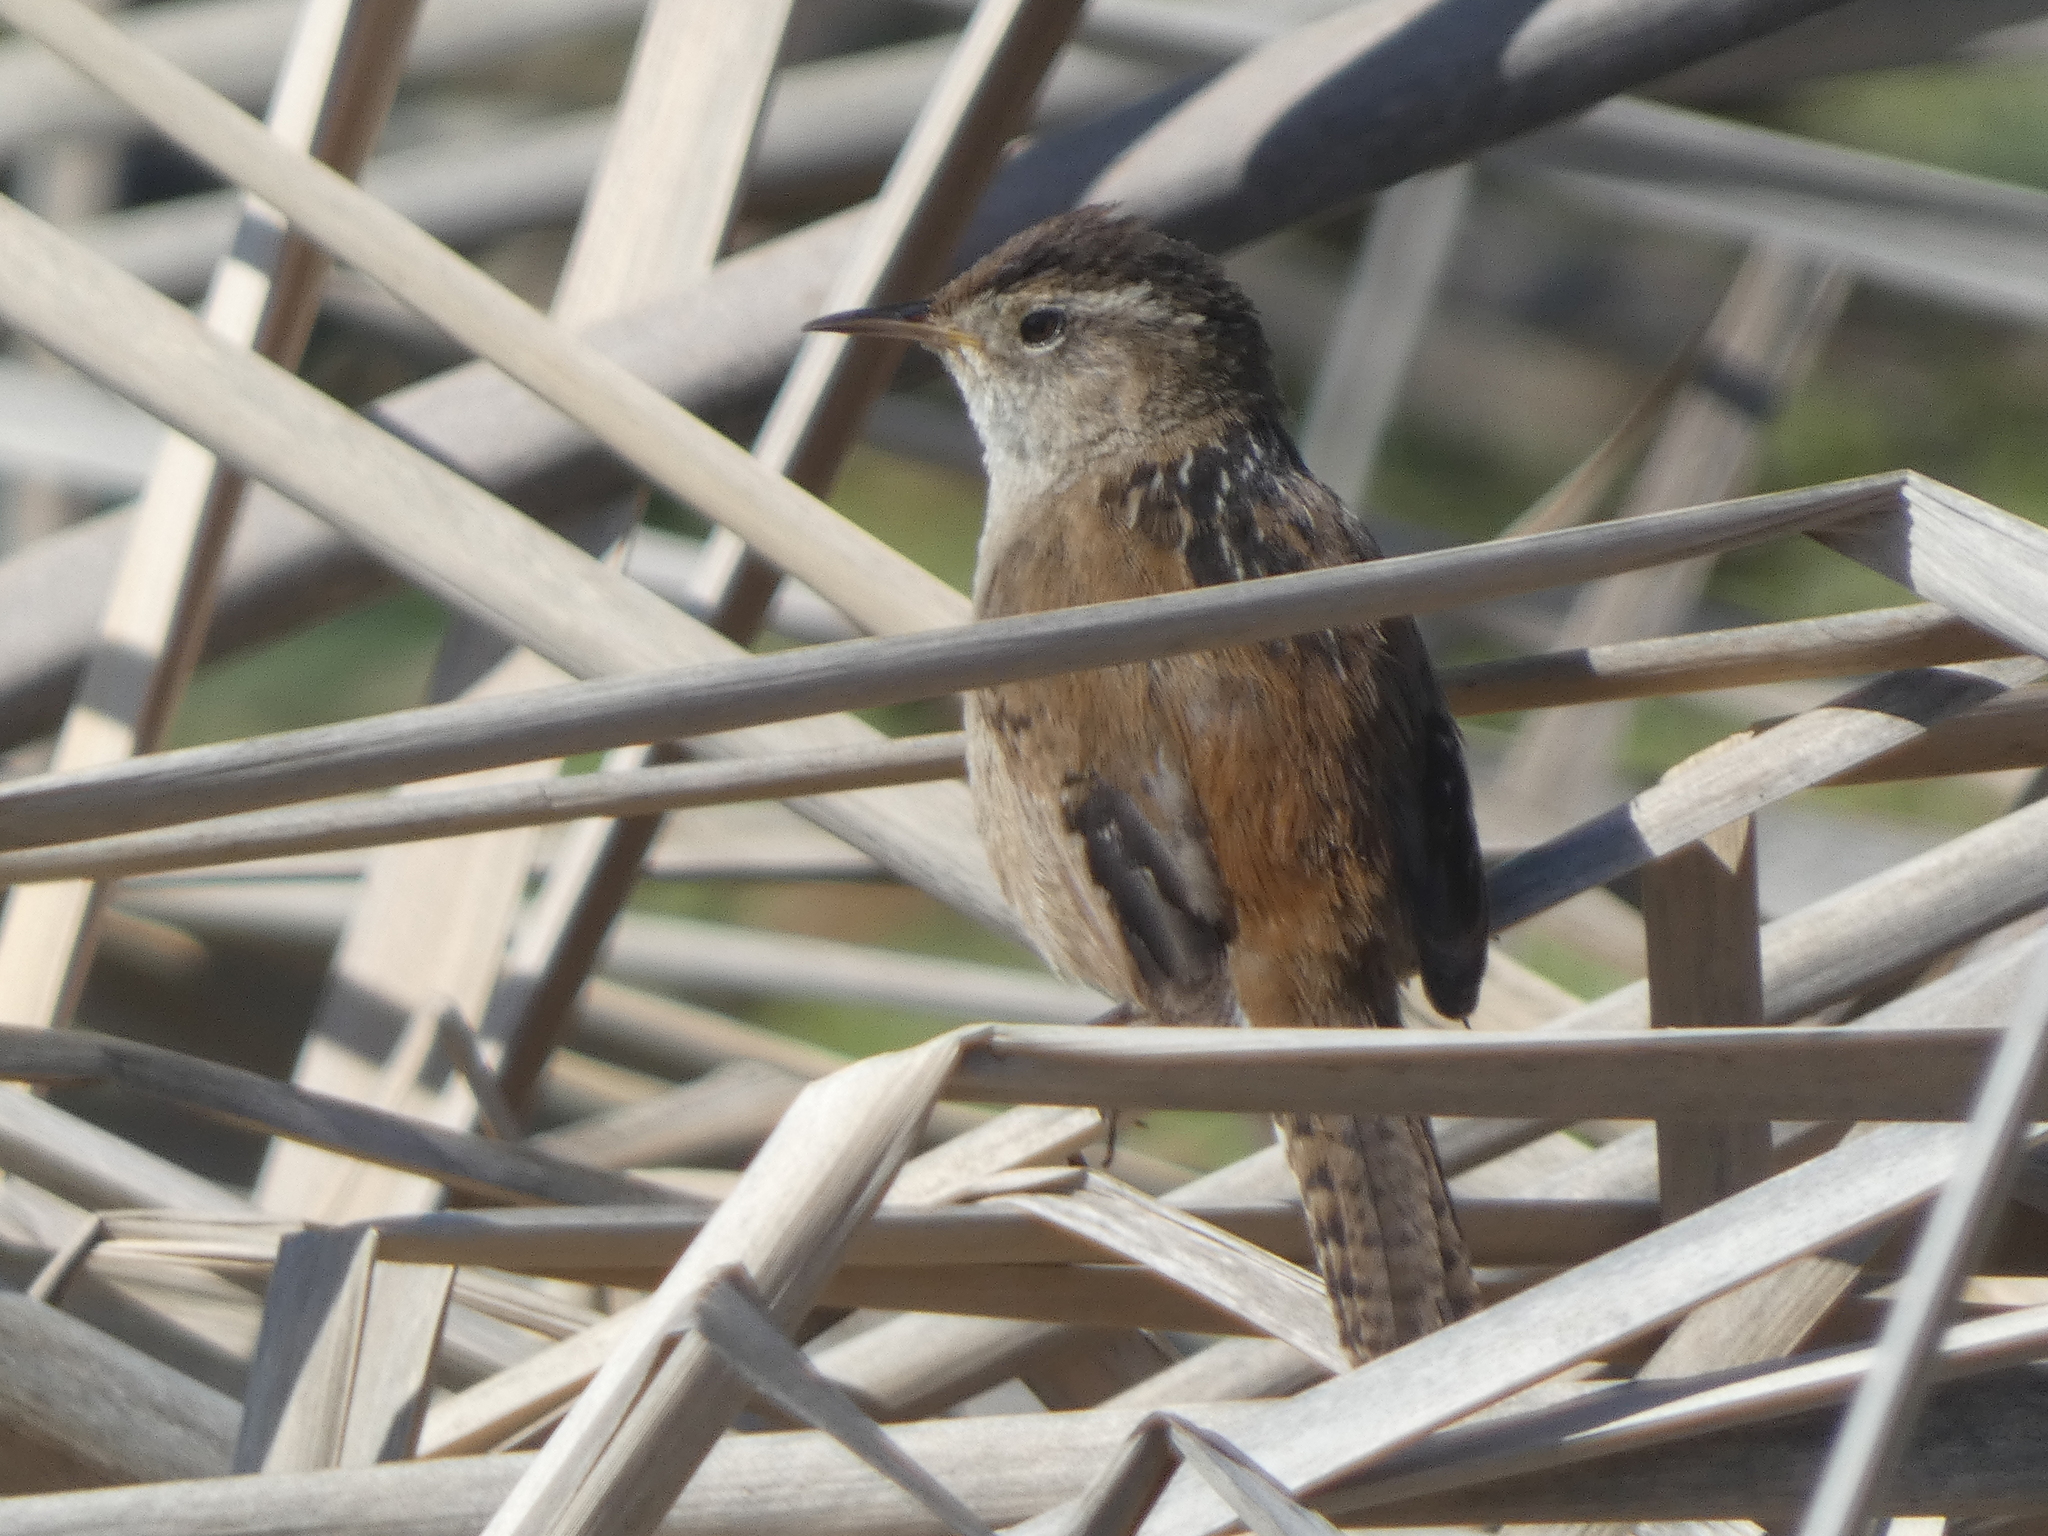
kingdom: Animalia
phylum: Chordata
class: Aves
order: Passeriformes
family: Troglodytidae
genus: Cistothorus
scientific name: Cistothorus palustris
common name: Marsh wren
